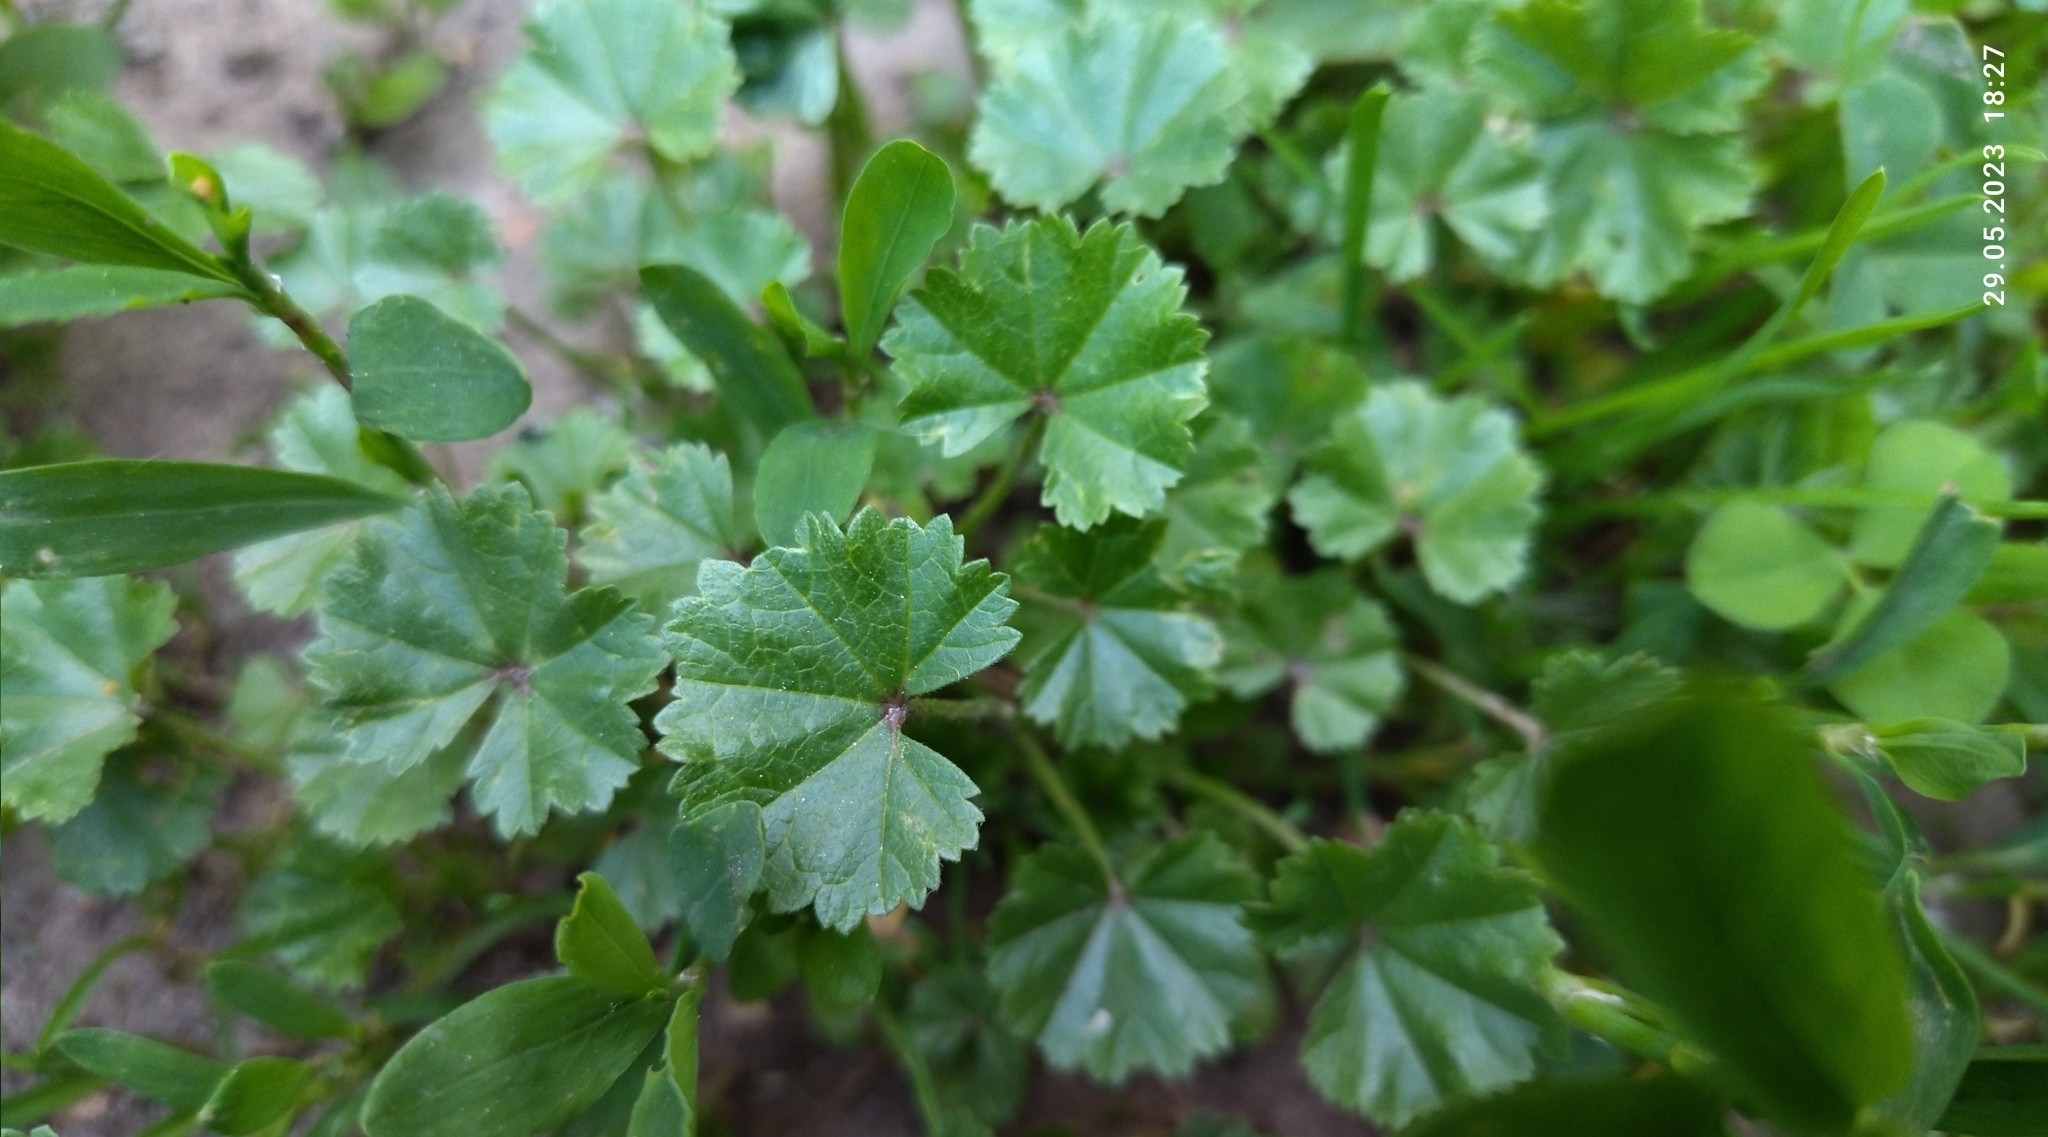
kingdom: Plantae
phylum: Tracheophyta
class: Magnoliopsida
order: Malvales
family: Malvaceae
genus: Malva
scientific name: Malva pusilla
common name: Small mallow
